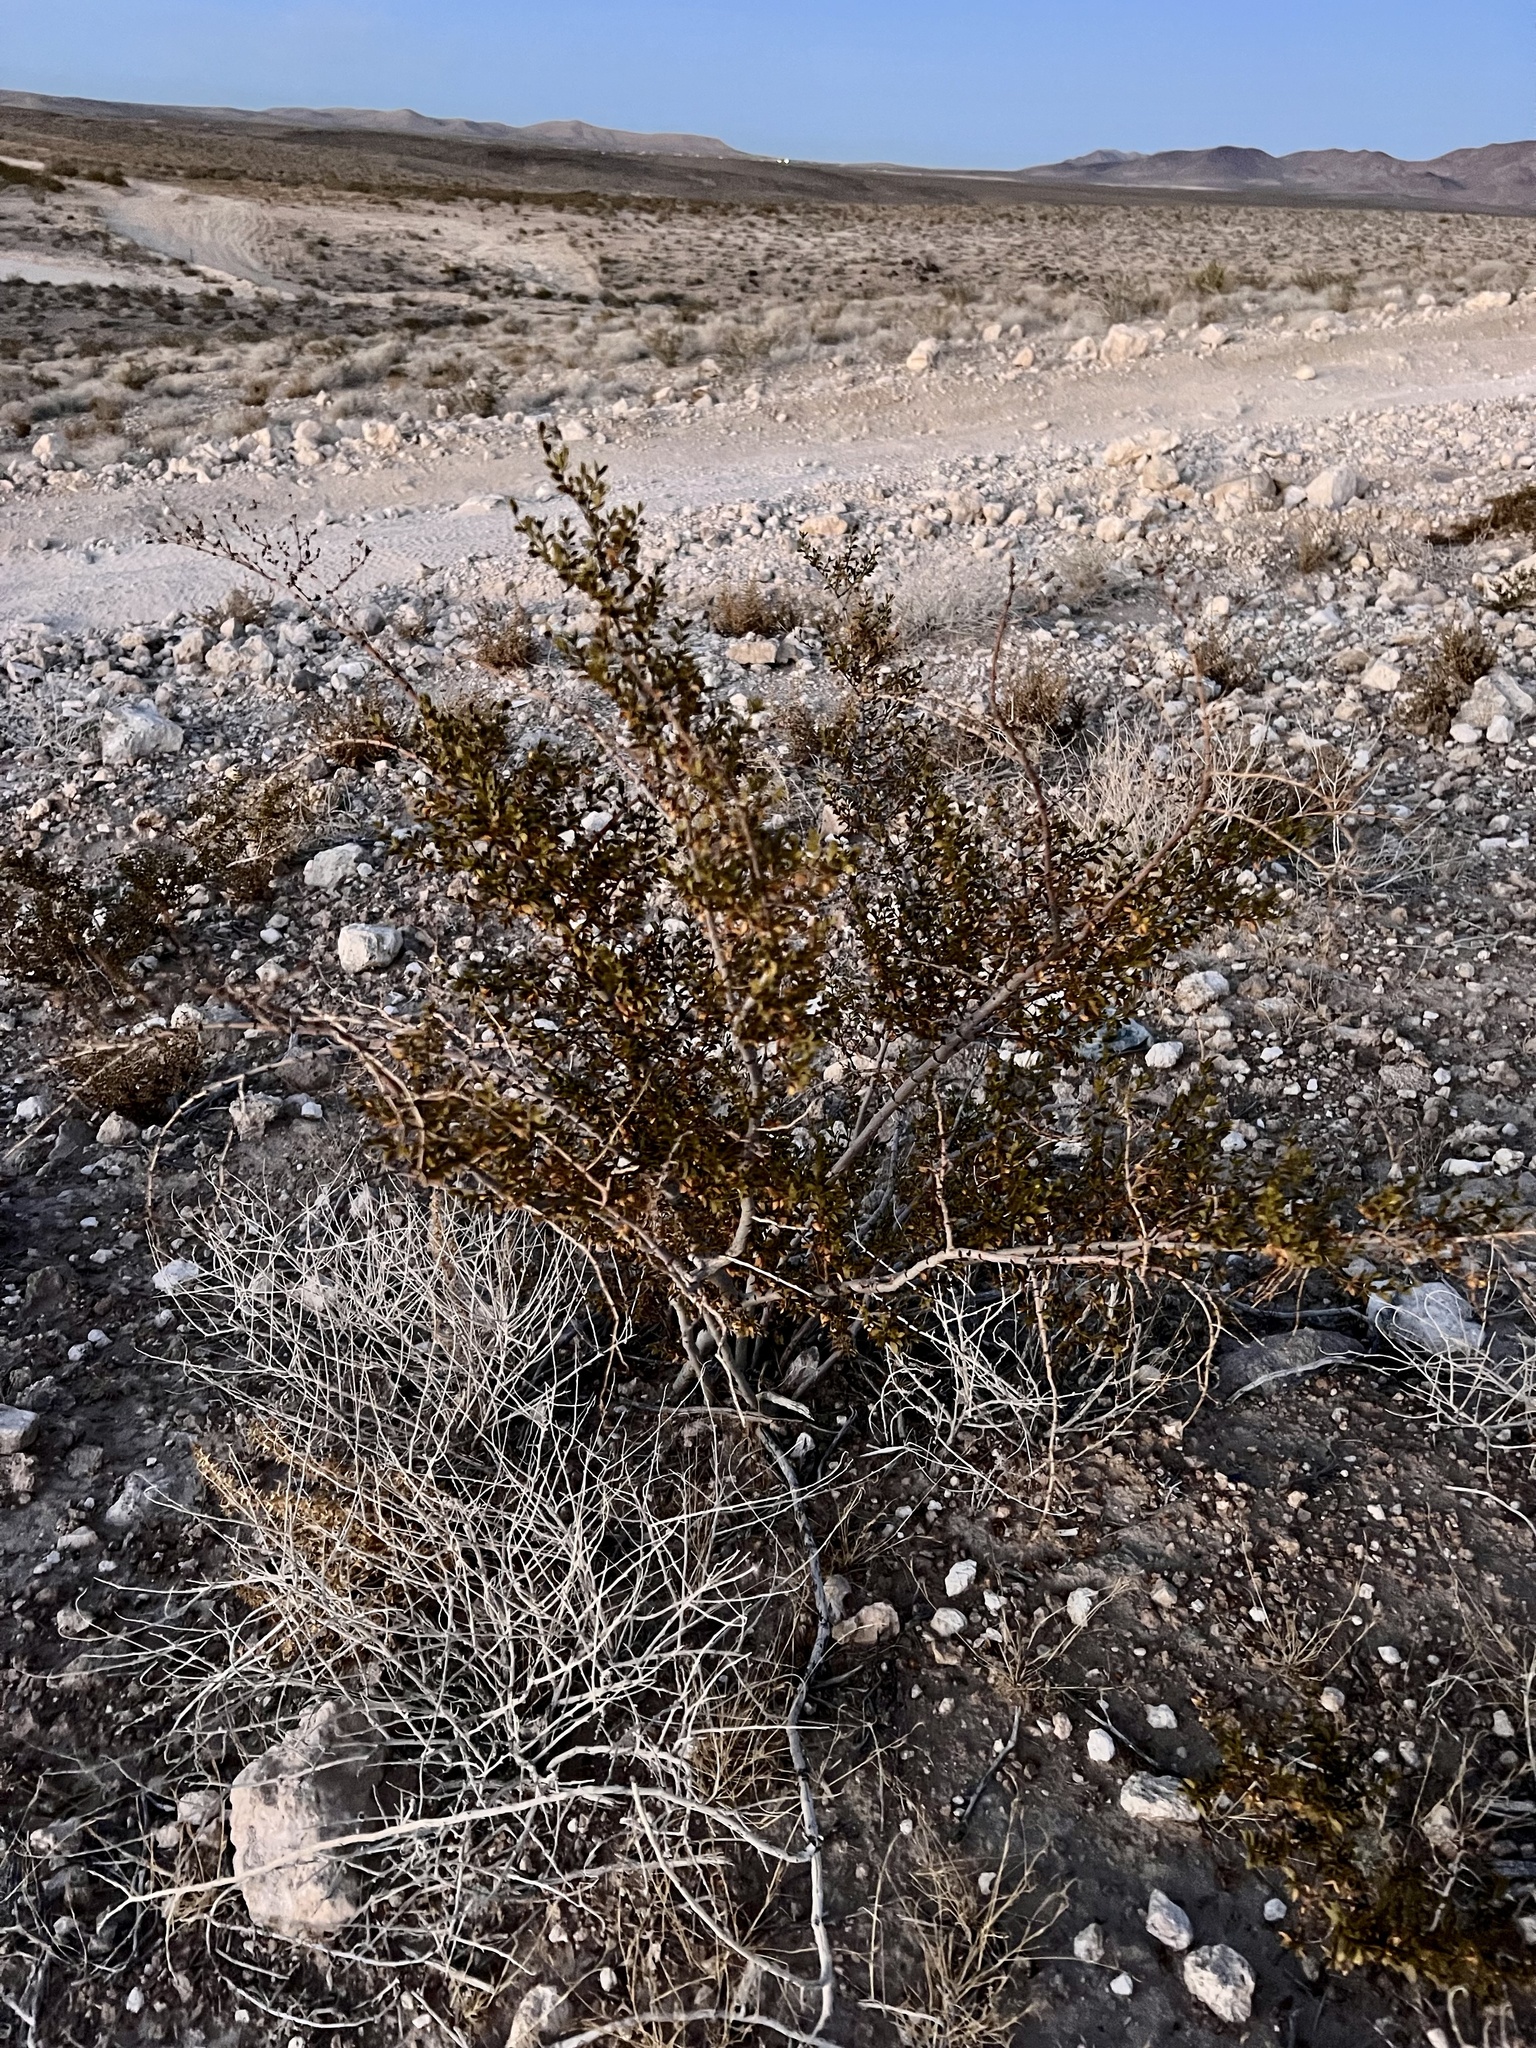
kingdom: Plantae
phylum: Tracheophyta
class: Magnoliopsida
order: Zygophyllales
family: Zygophyllaceae
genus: Larrea
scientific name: Larrea tridentata
